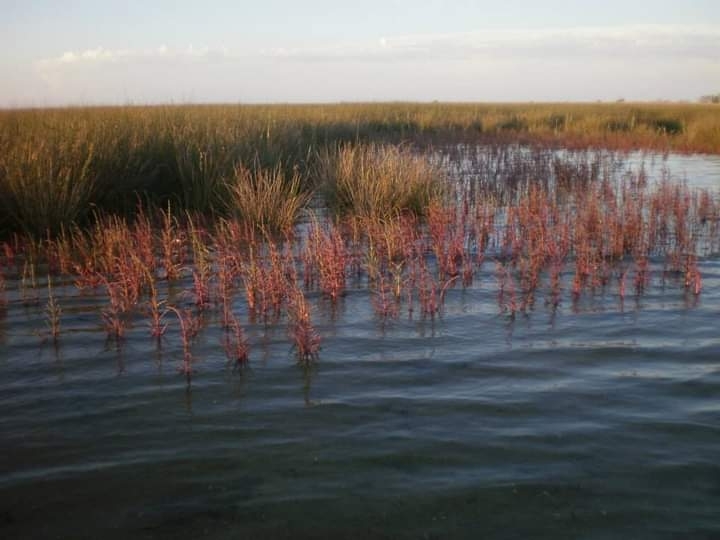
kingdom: Plantae
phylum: Tracheophyta
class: Magnoliopsida
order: Caryophyllales
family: Amaranthaceae
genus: Salicornia
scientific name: Salicornia perennans
